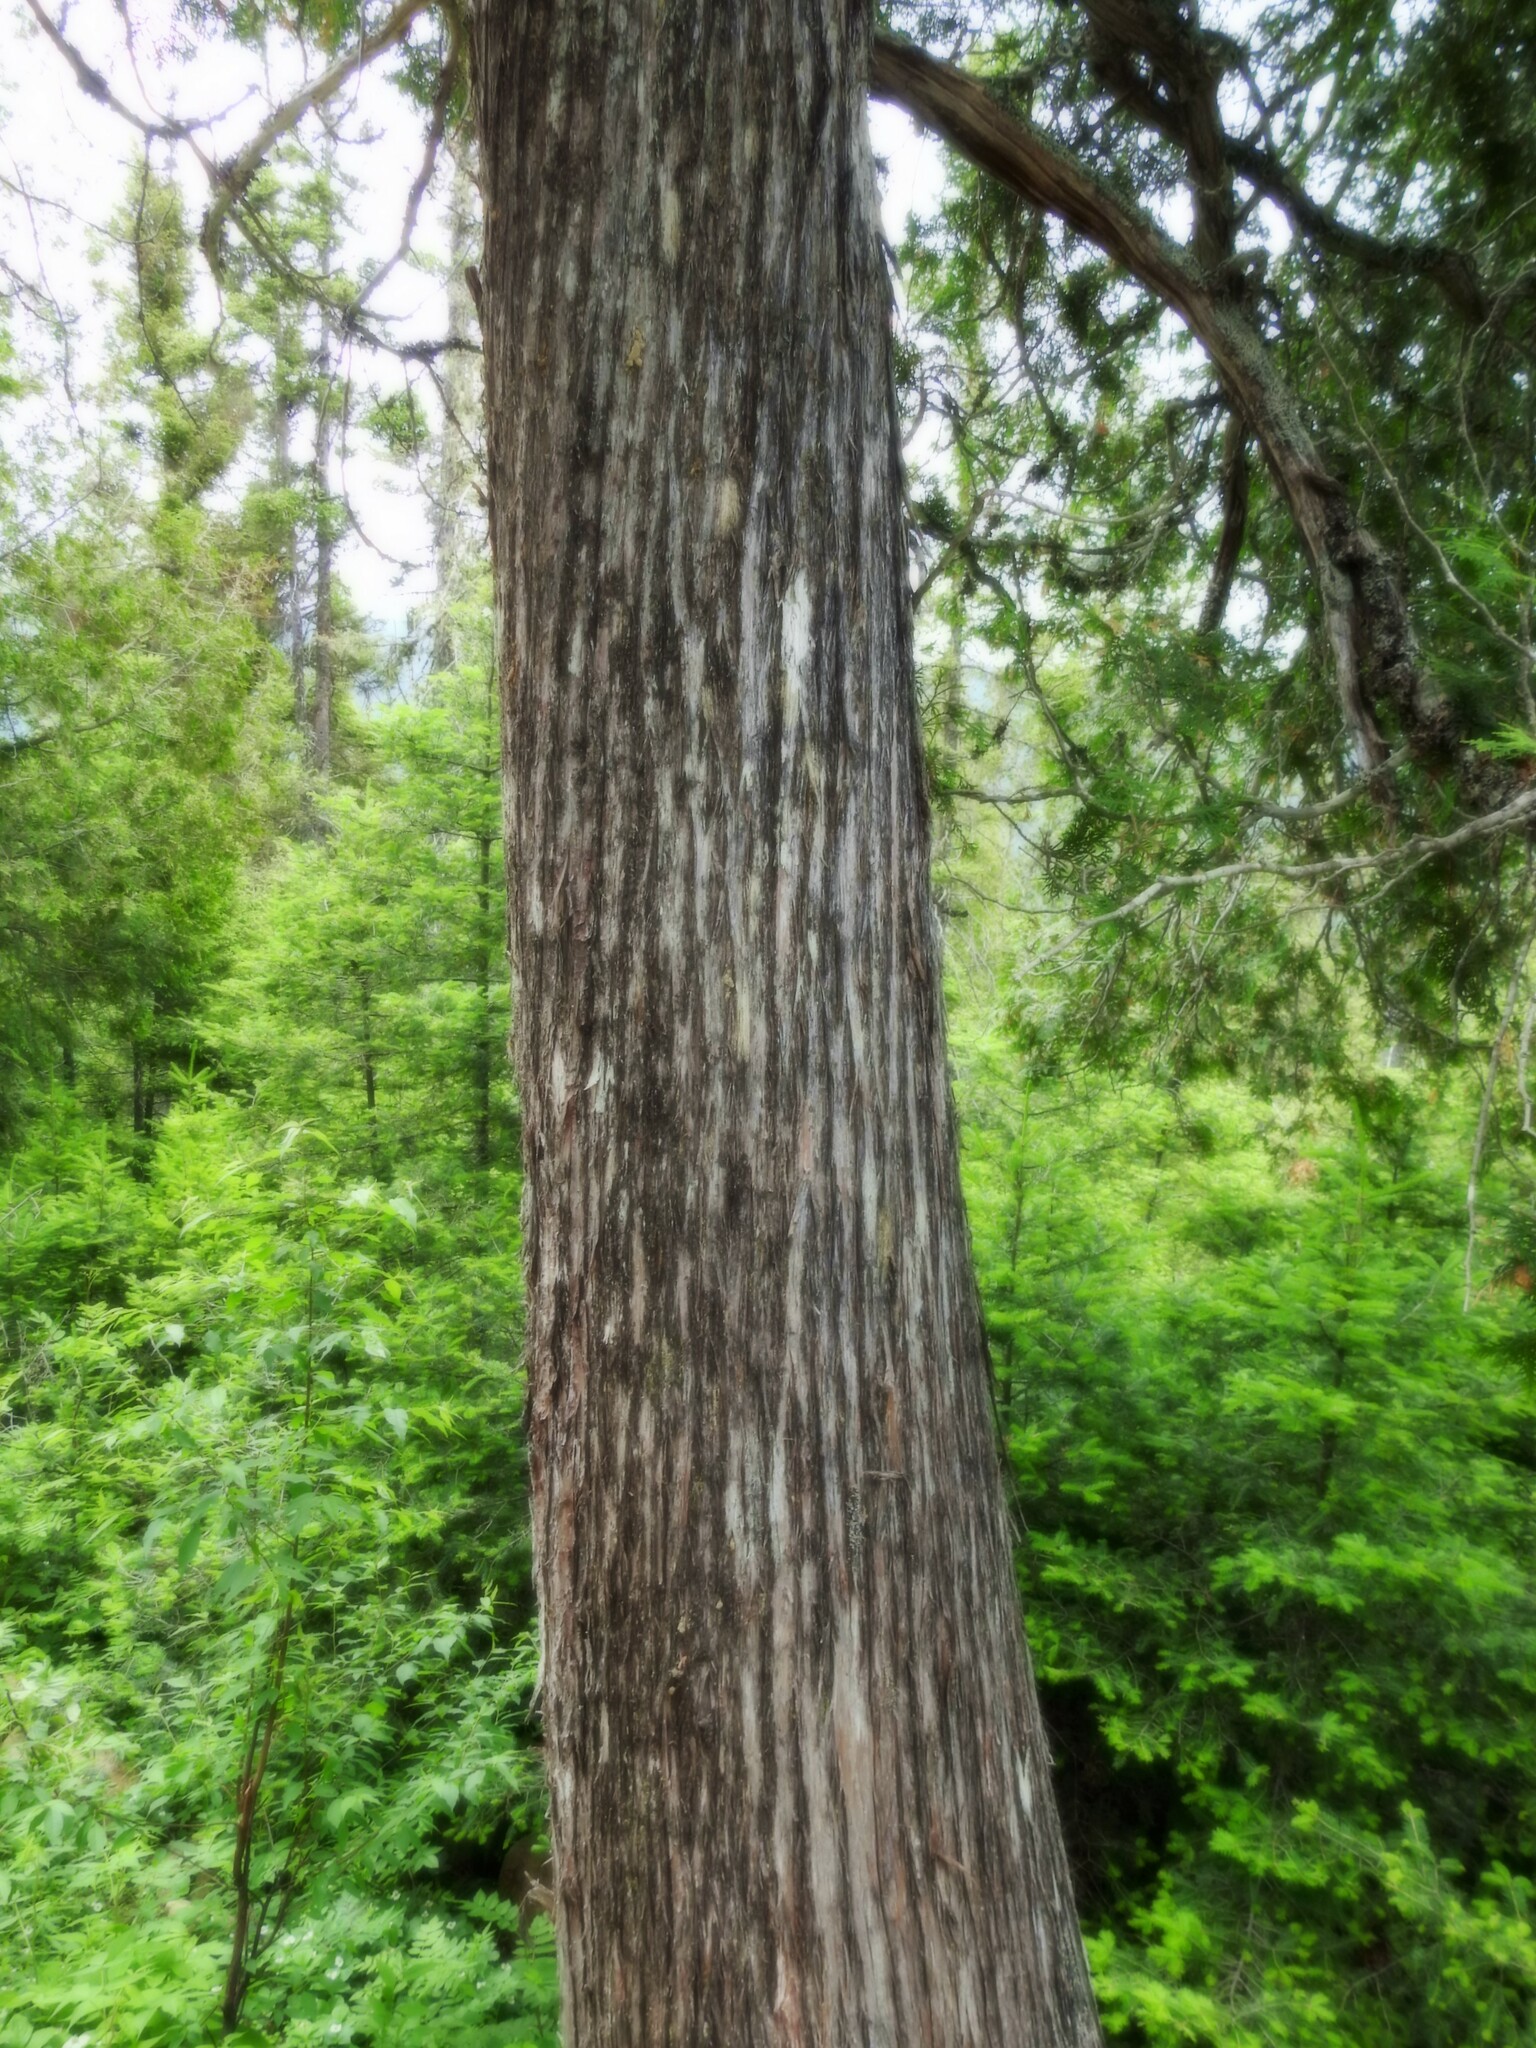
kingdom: Plantae
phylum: Tracheophyta
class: Pinopsida
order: Pinales
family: Cupressaceae
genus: Thuja
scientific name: Thuja occidentalis
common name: Northern white-cedar
